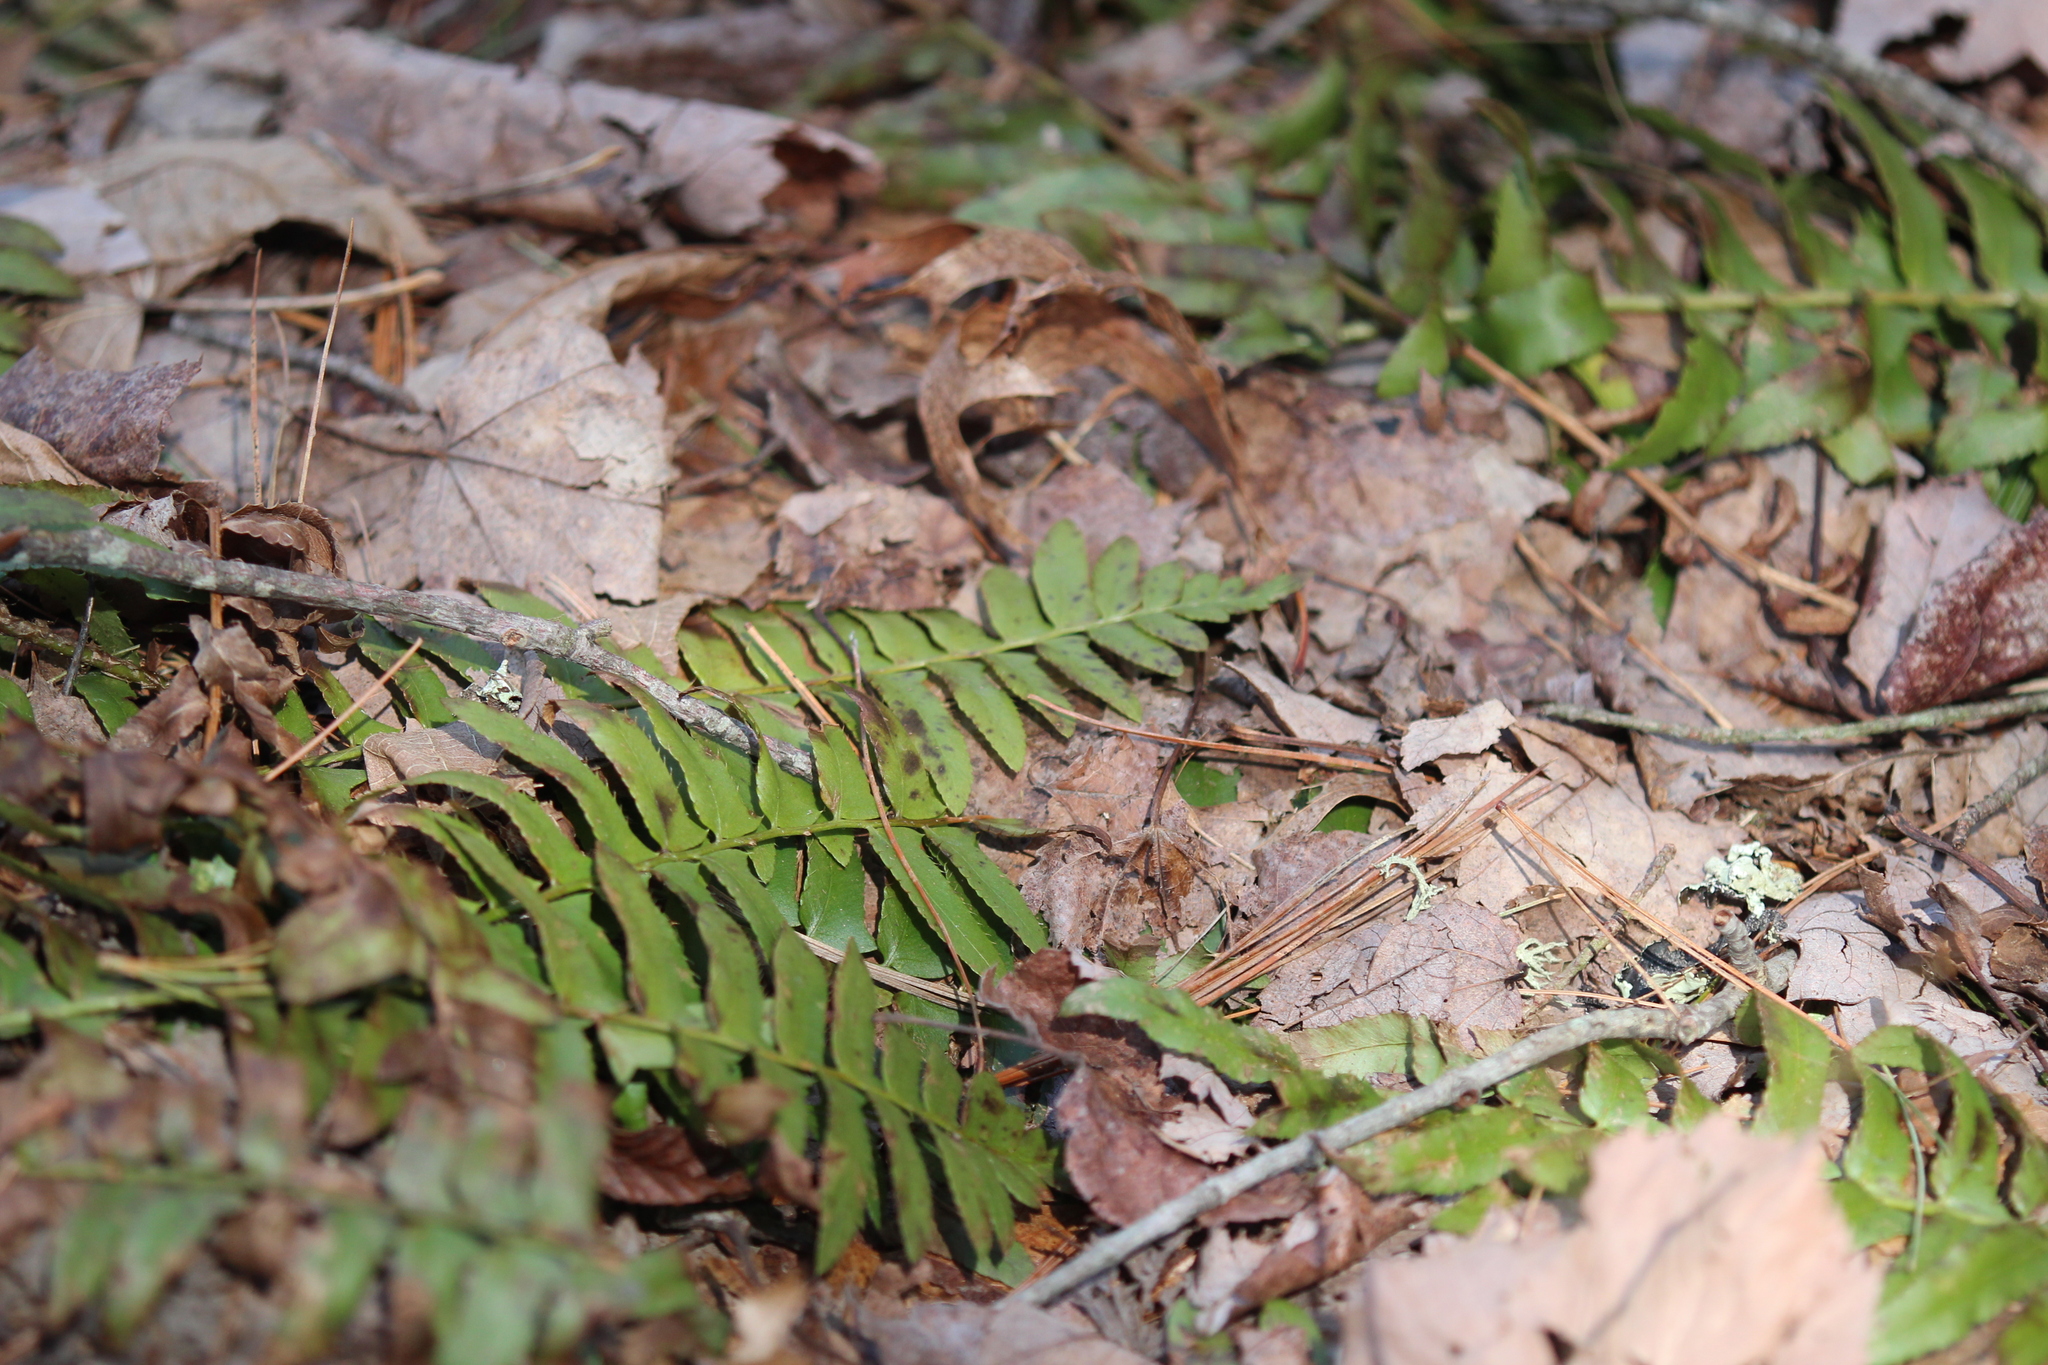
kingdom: Plantae
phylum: Tracheophyta
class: Polypodiopsida
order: Polypodiales
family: Dryopteridaceae
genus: Polystichum
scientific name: Polystichum acrostichoides
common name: Christmas fern
